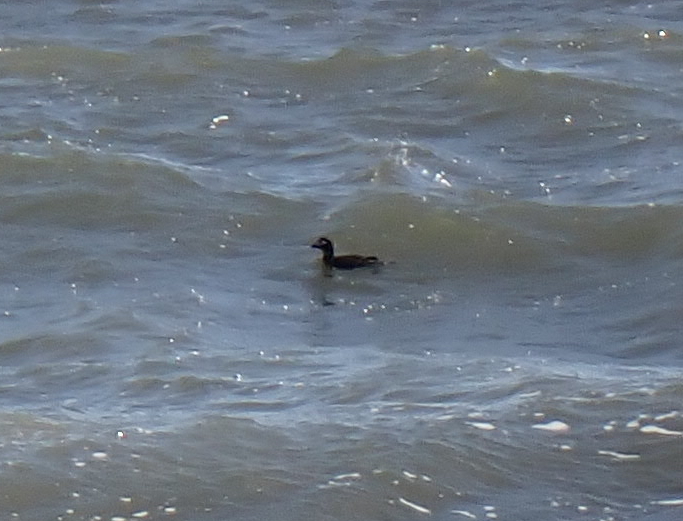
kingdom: Animalia
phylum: Chordata
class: Aves
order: Anseriformes
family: Anatidae
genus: Clangula
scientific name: Clangula hyemalis
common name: Long-tailed duck
